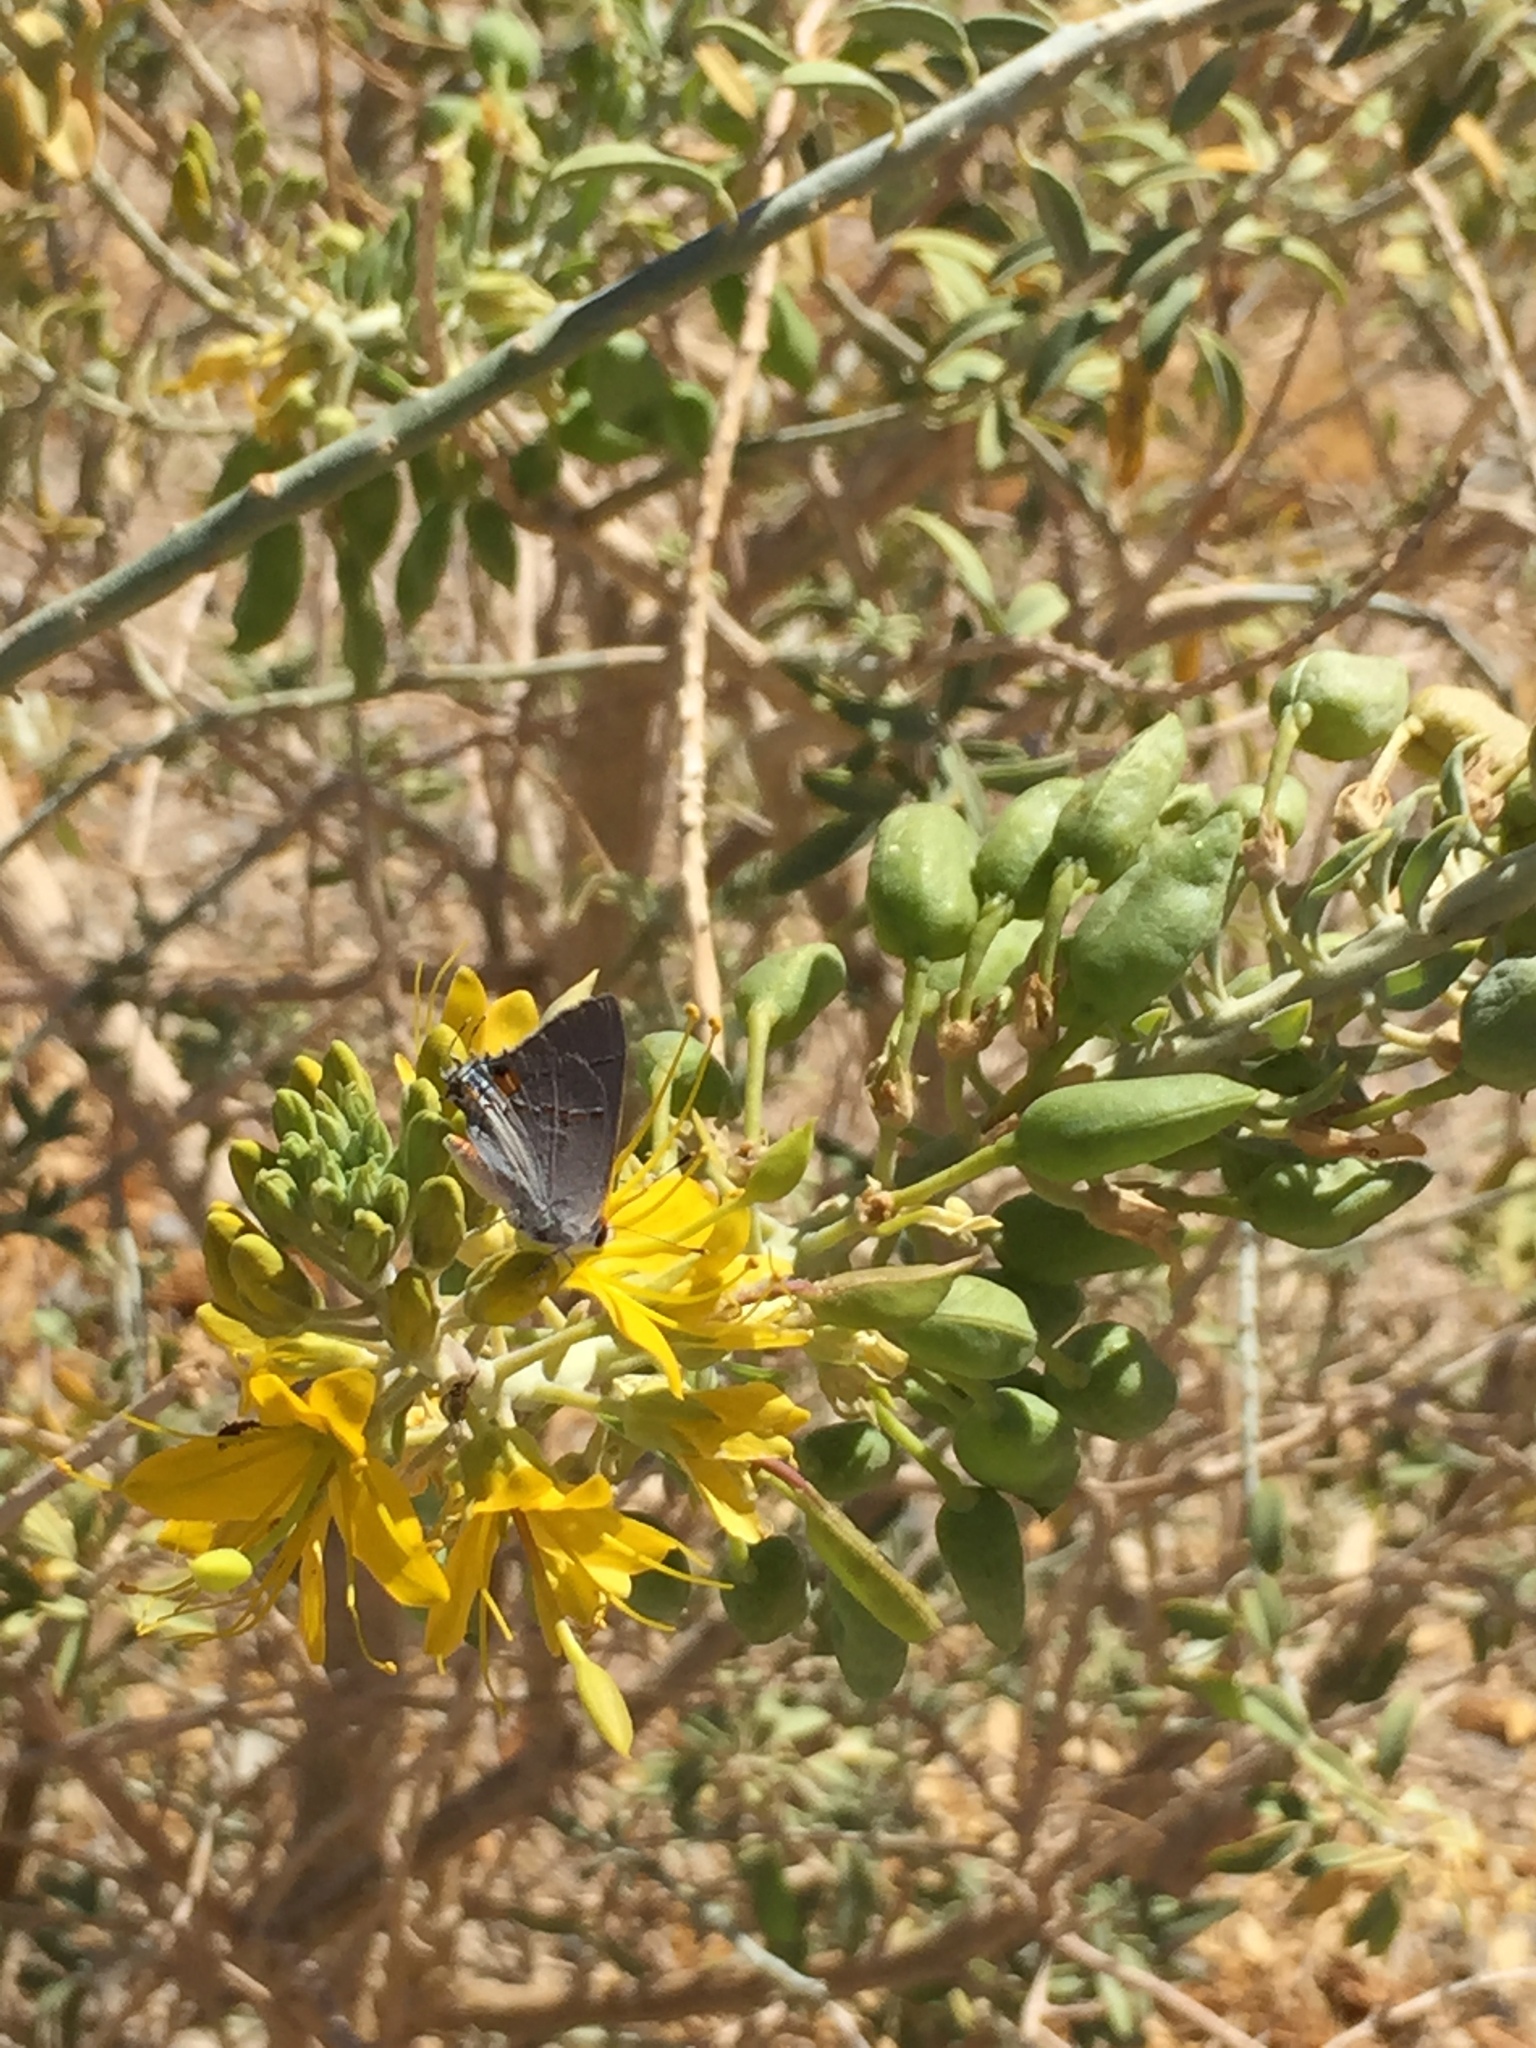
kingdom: Plantae
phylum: Tracheophyta
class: Magnoliopsida
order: Brassicales
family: Cleomaceae
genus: Cleomella
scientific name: Cleomella arborea
